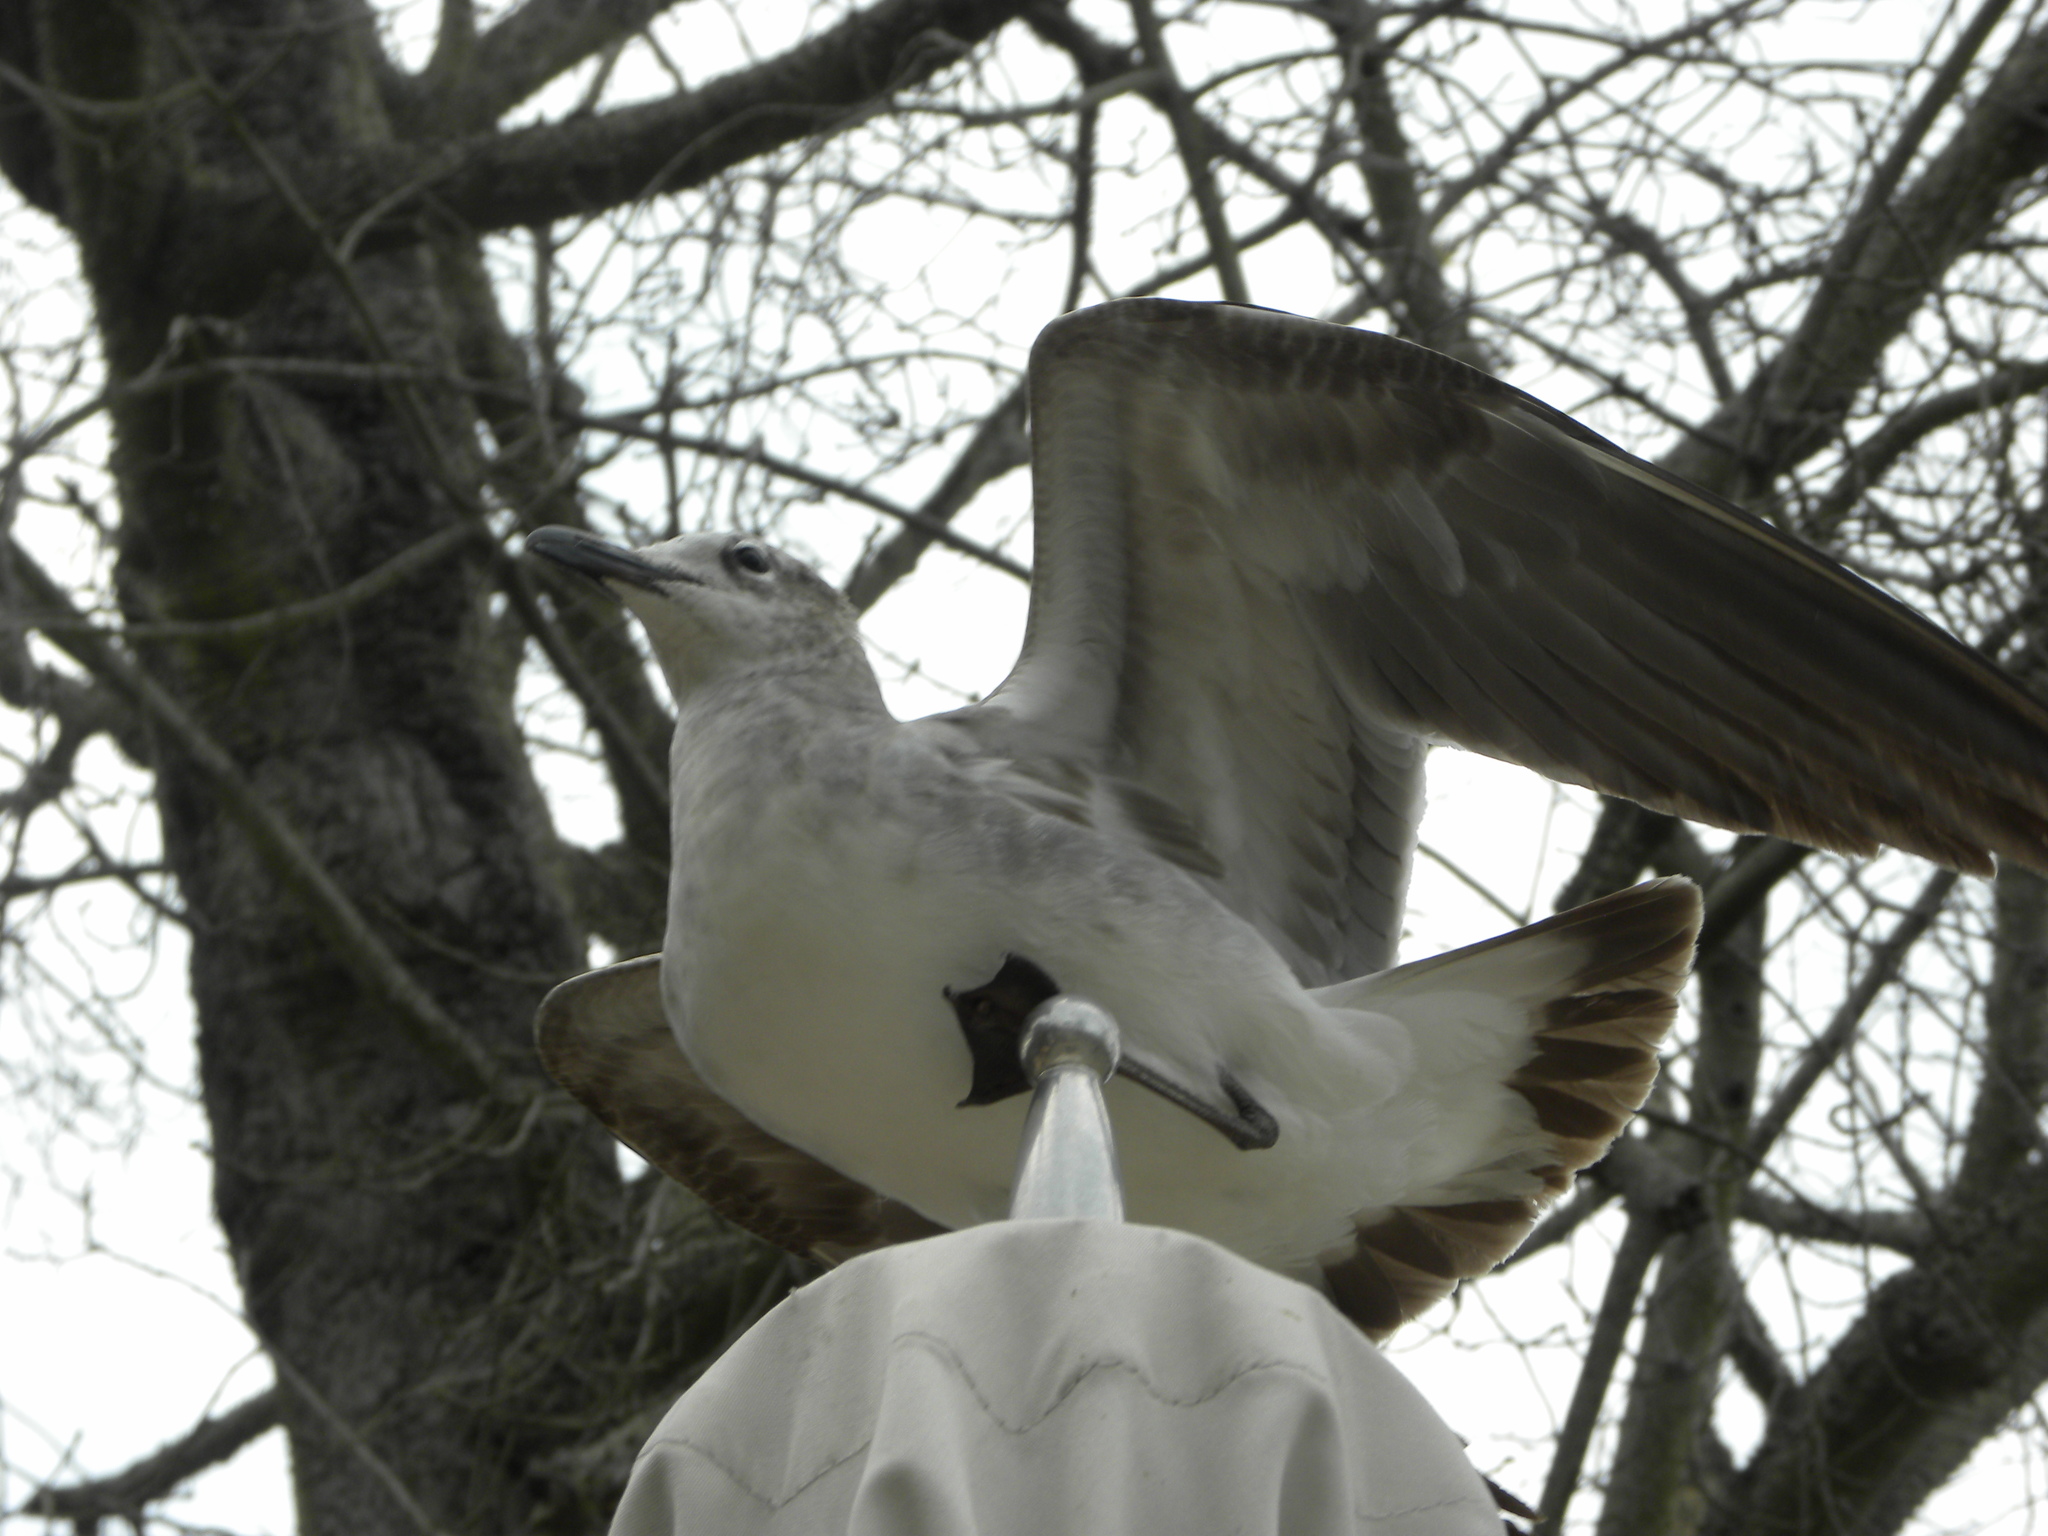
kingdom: Animalia
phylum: Chordata
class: Aves
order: Charadriiformes
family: Laridae
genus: Leucophaeus
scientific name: Leucophaeus atricilla
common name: Laughing gull
